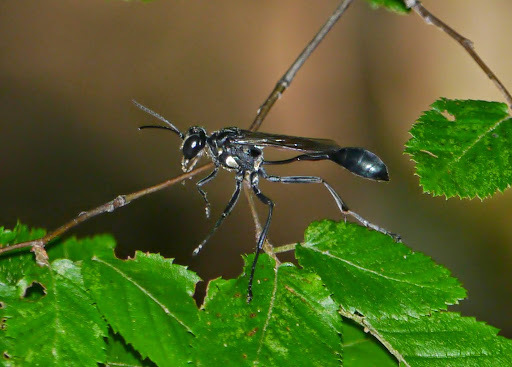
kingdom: Animalia
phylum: Arthropoda
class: Insecta
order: Hymenoptera
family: Sphecidae
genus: Eremnophila
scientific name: Eremnophila aureonotata
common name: Gold-marked thread-waisted wasp
